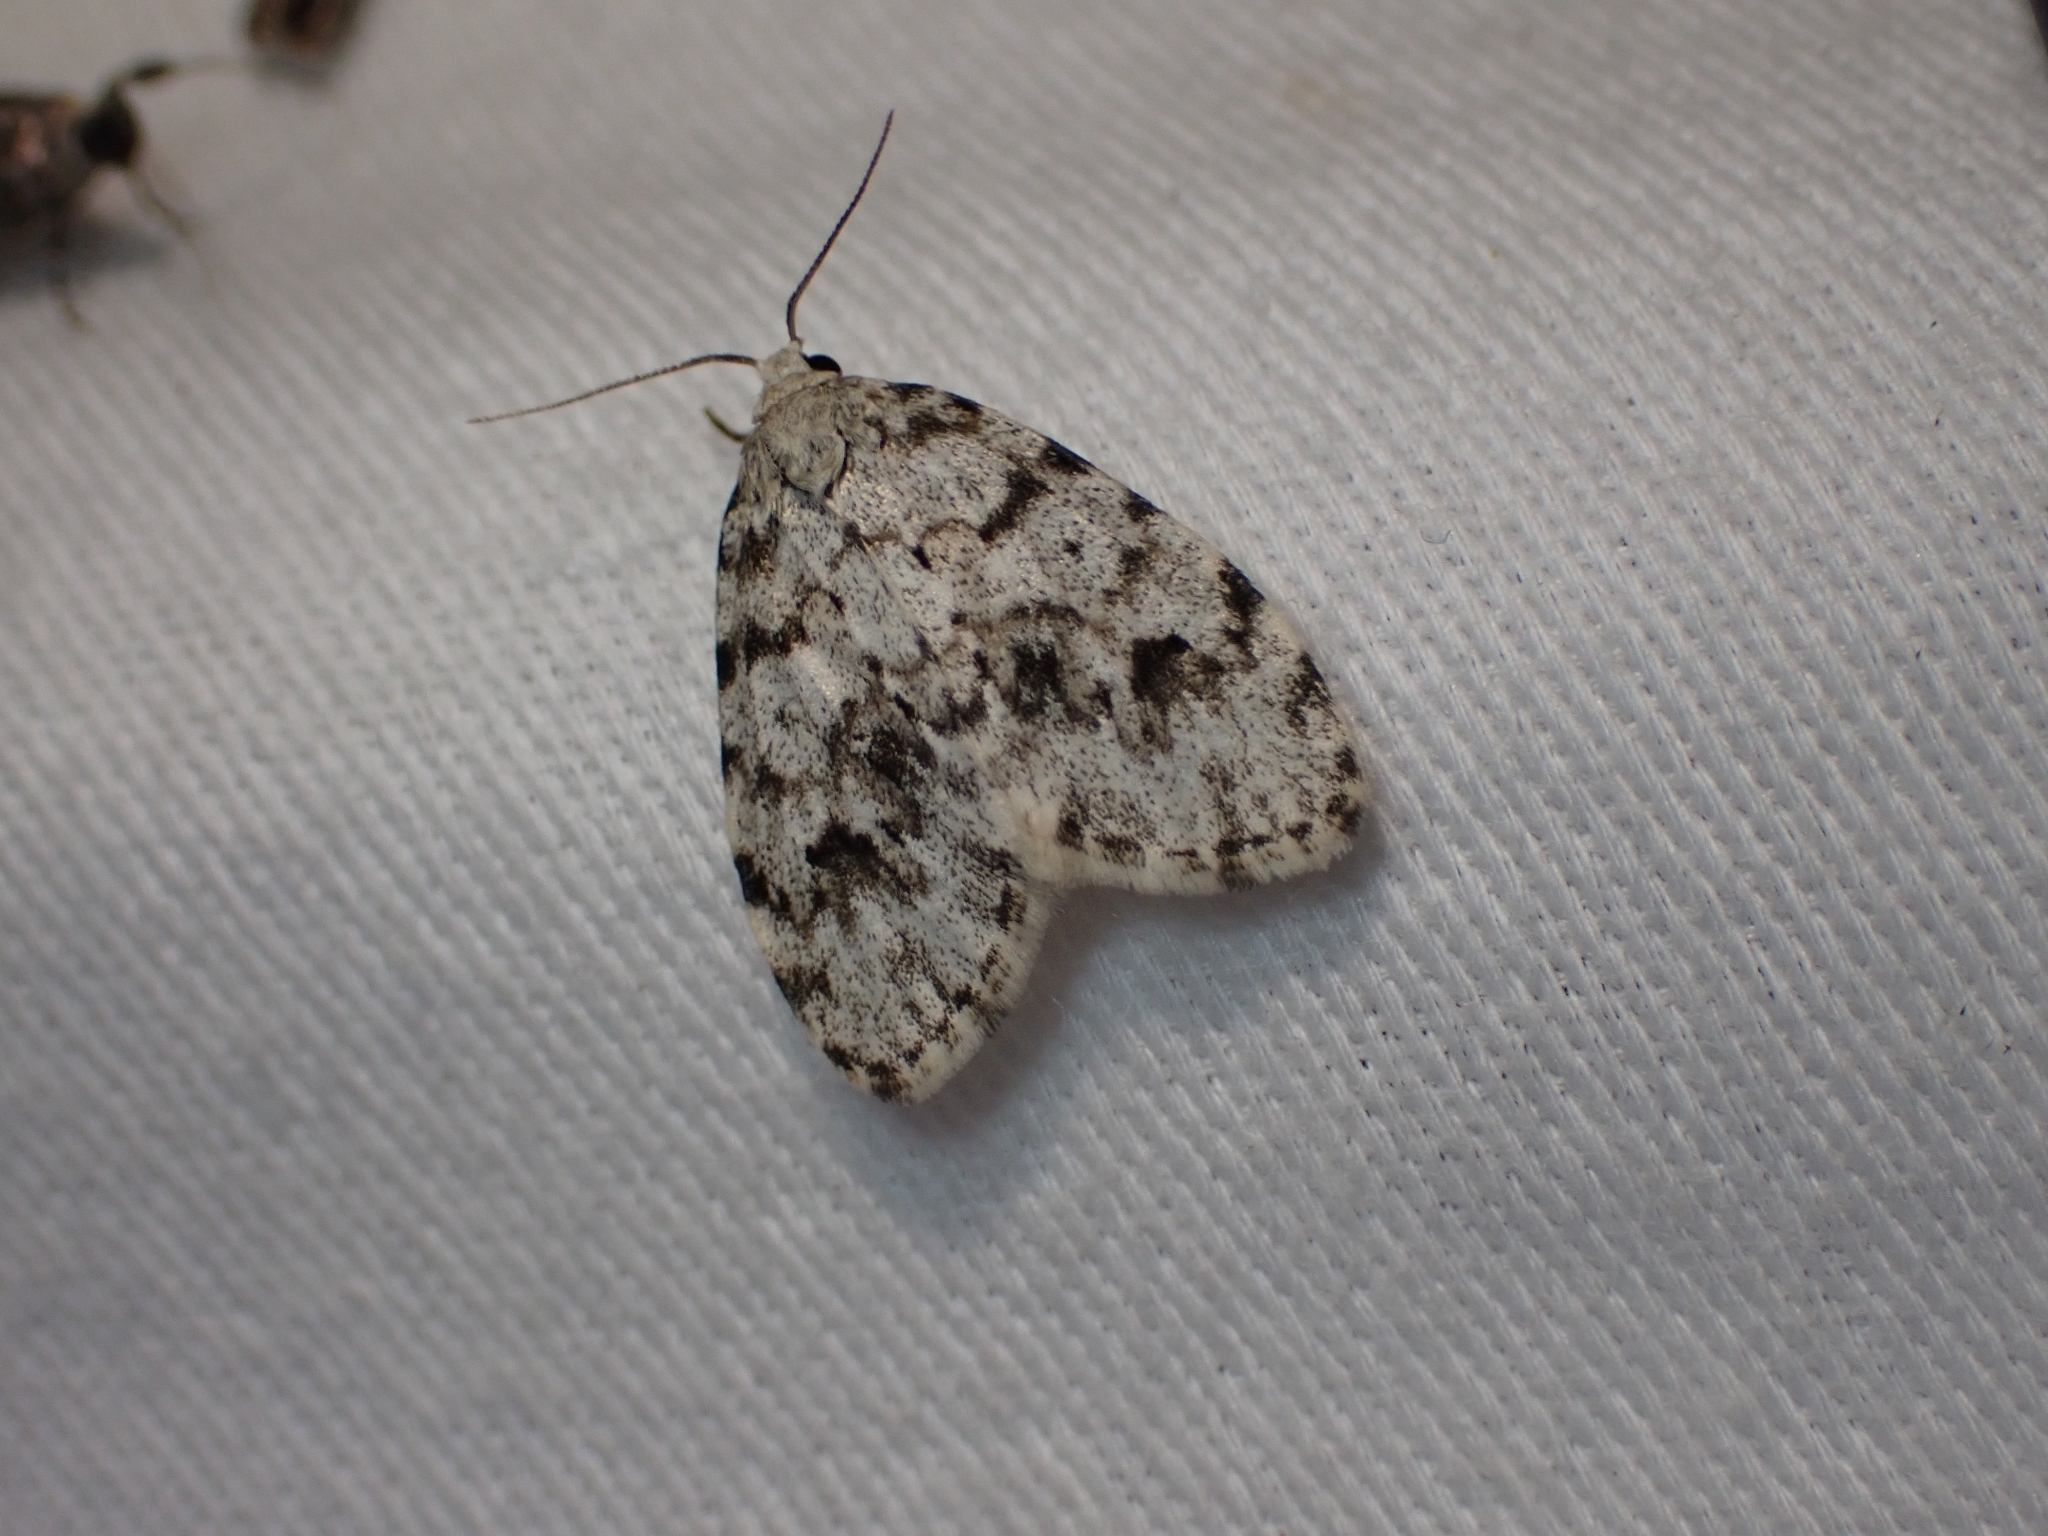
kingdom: Animalia
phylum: Arthropoda
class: Insecta
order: Lepidoptera
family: Erebidae
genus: Clemensia
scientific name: Clemensia umbrata
